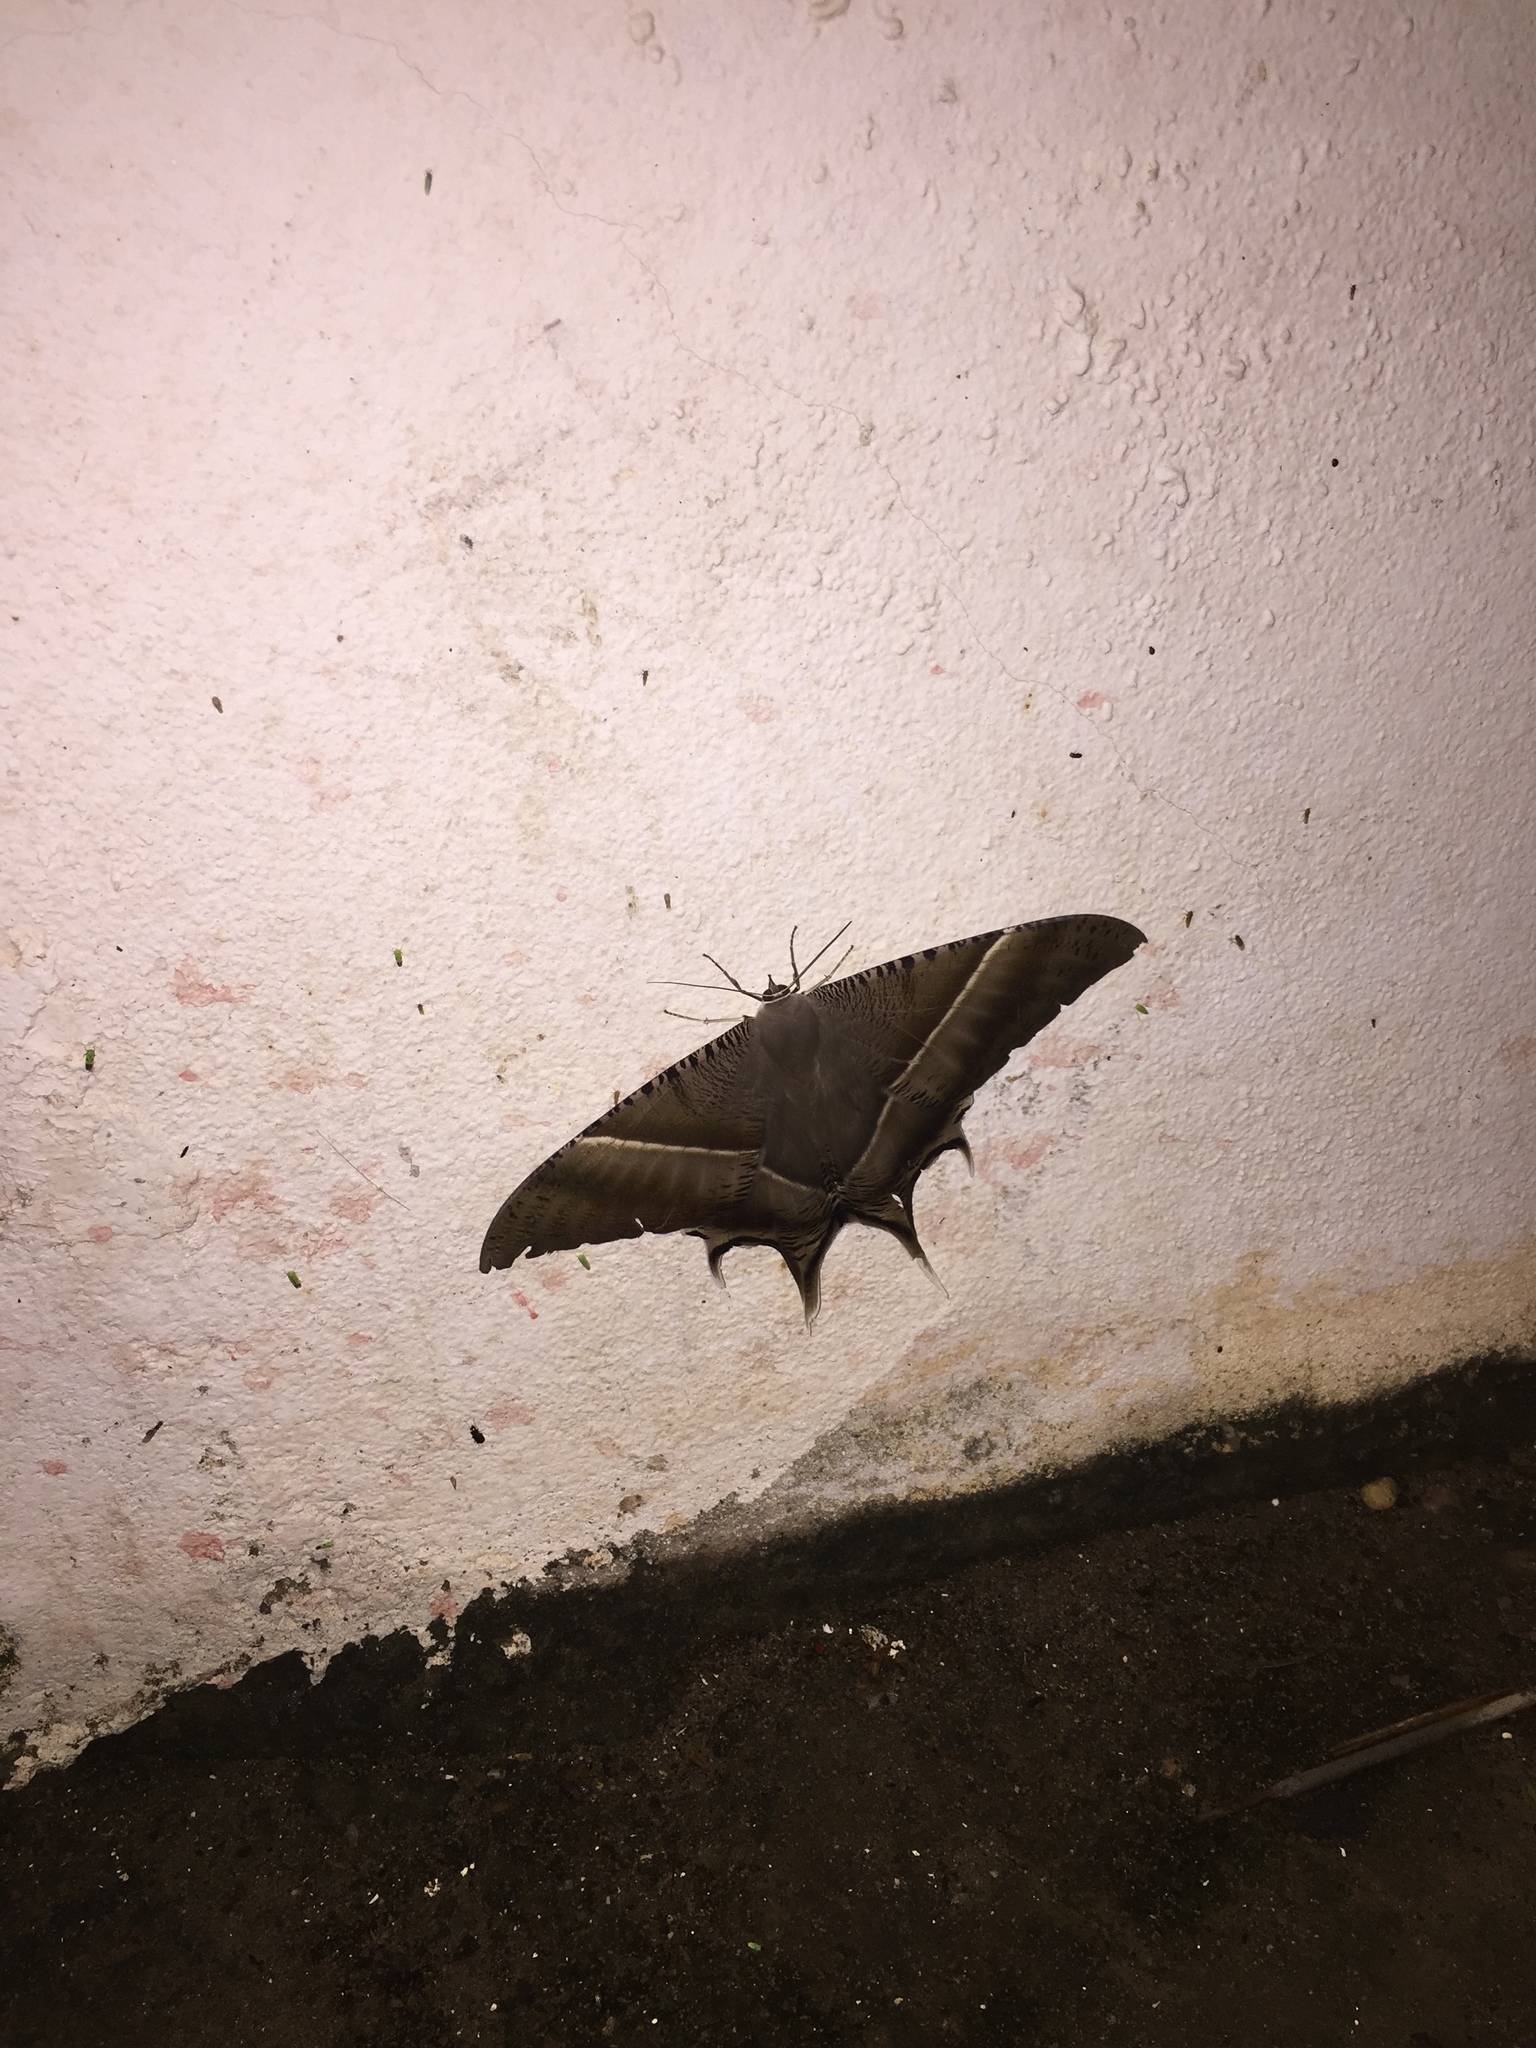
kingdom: Animalia
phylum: Arthropoda
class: Insecta
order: Lepidoptera
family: Uraniidae
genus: Lyssa
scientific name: Lyssa zampa
